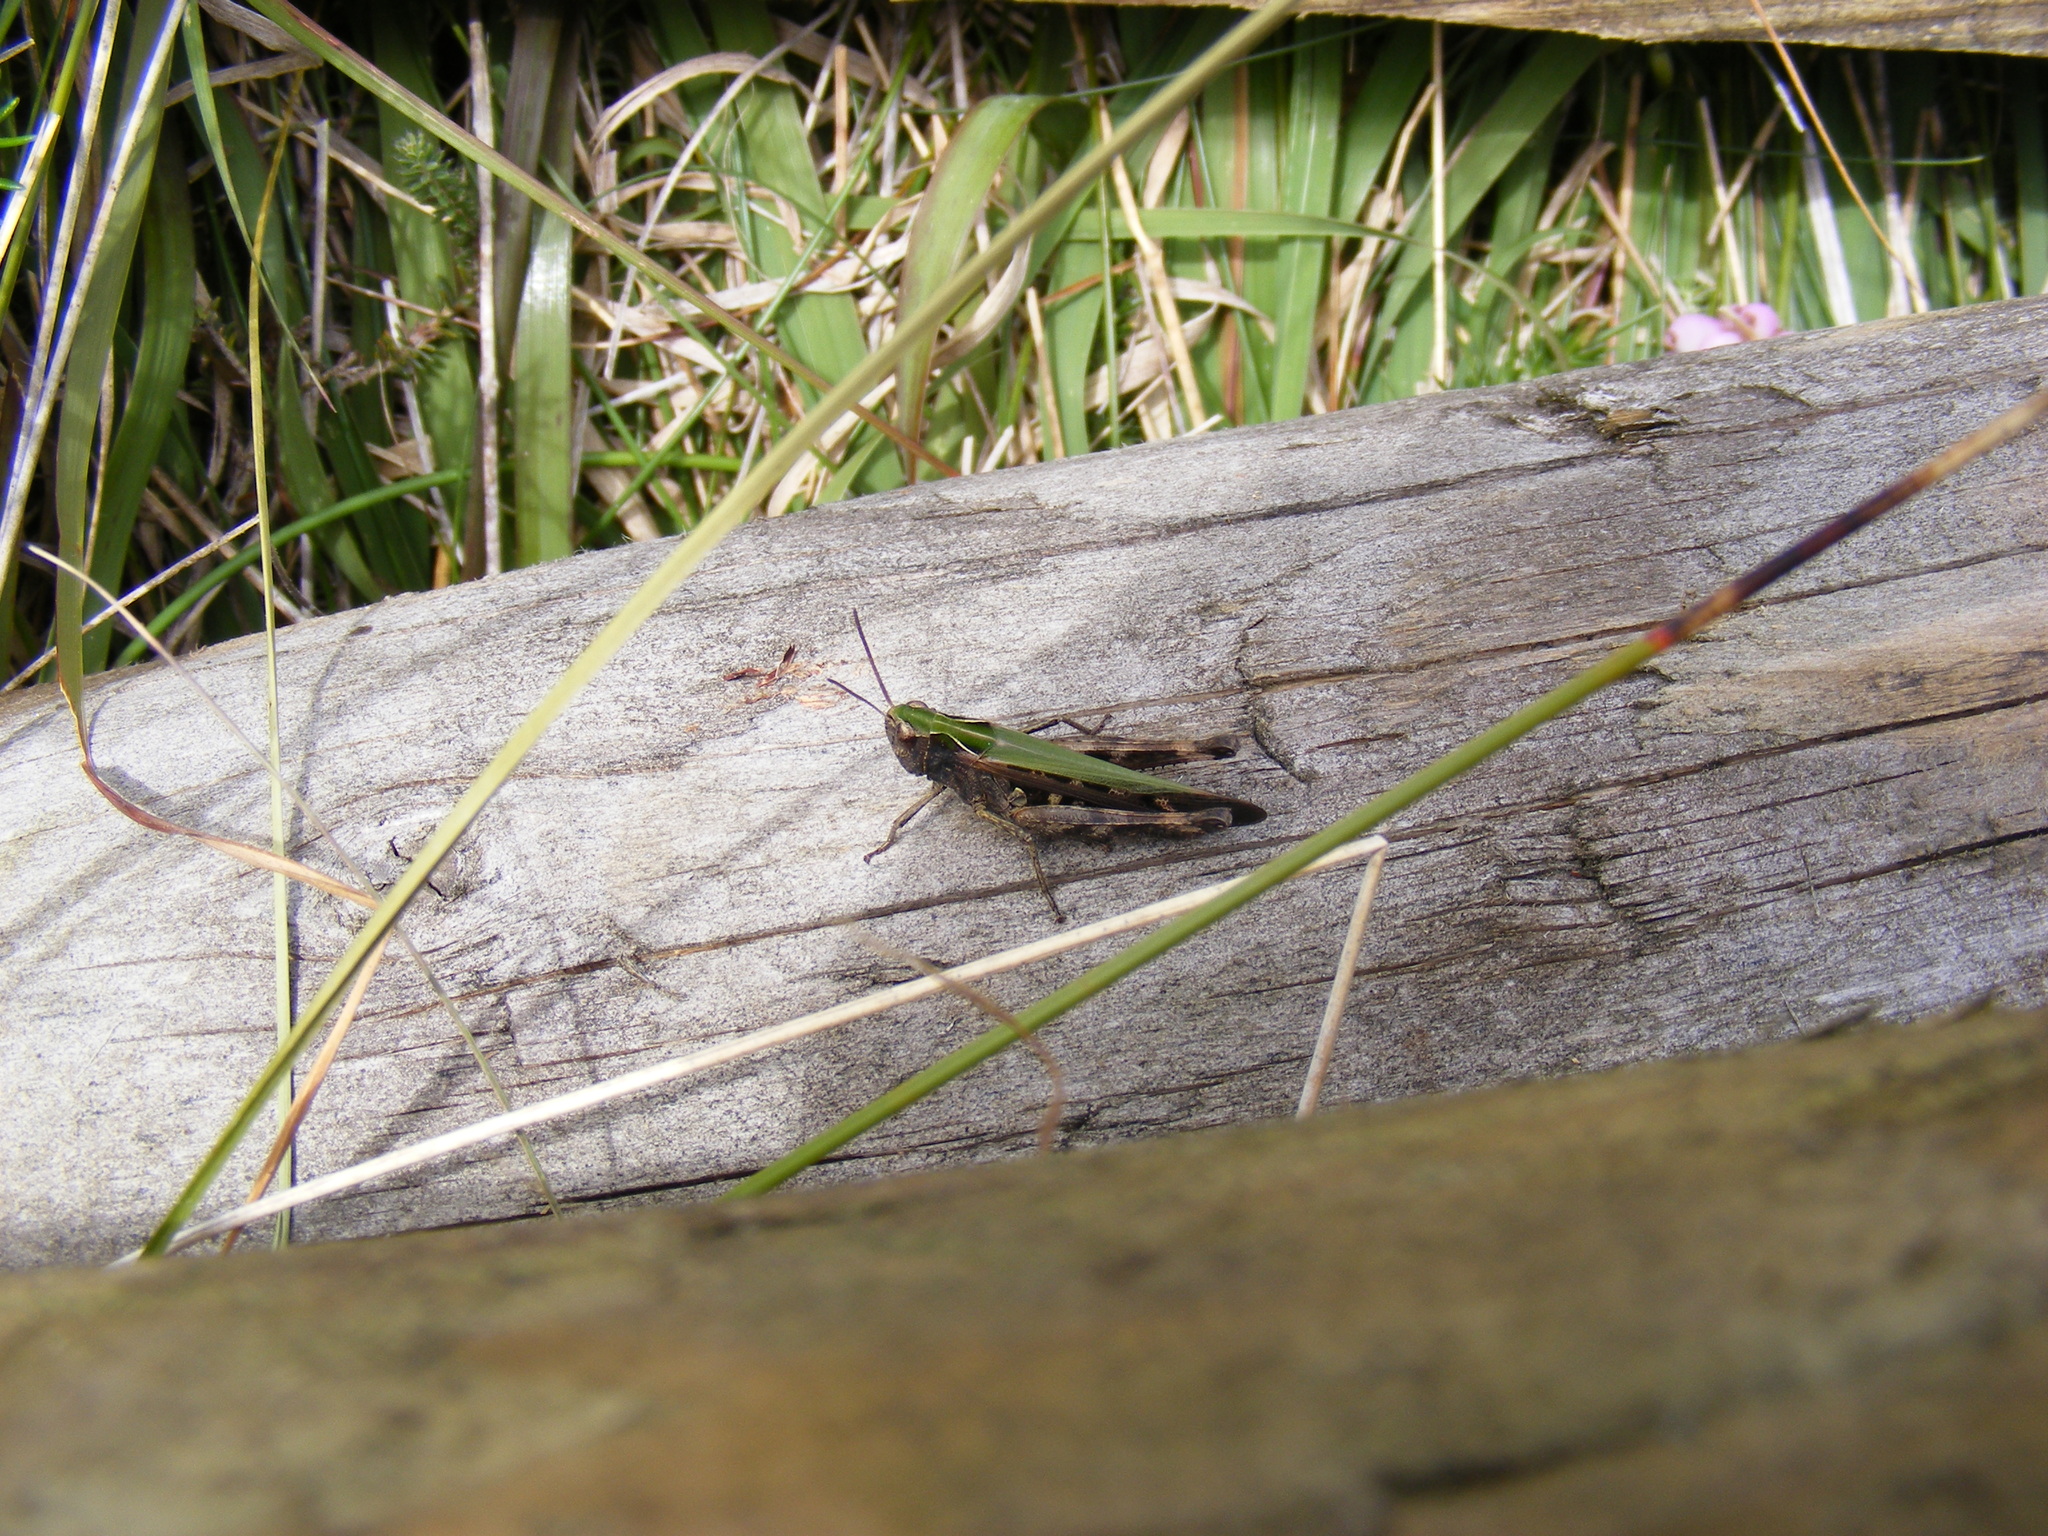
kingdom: Animalia
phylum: Arthropoda
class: Insecta
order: Orthoptera
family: Acrididae
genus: Omocestus
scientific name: Omocestus rufipes
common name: Woodland grasshopper
